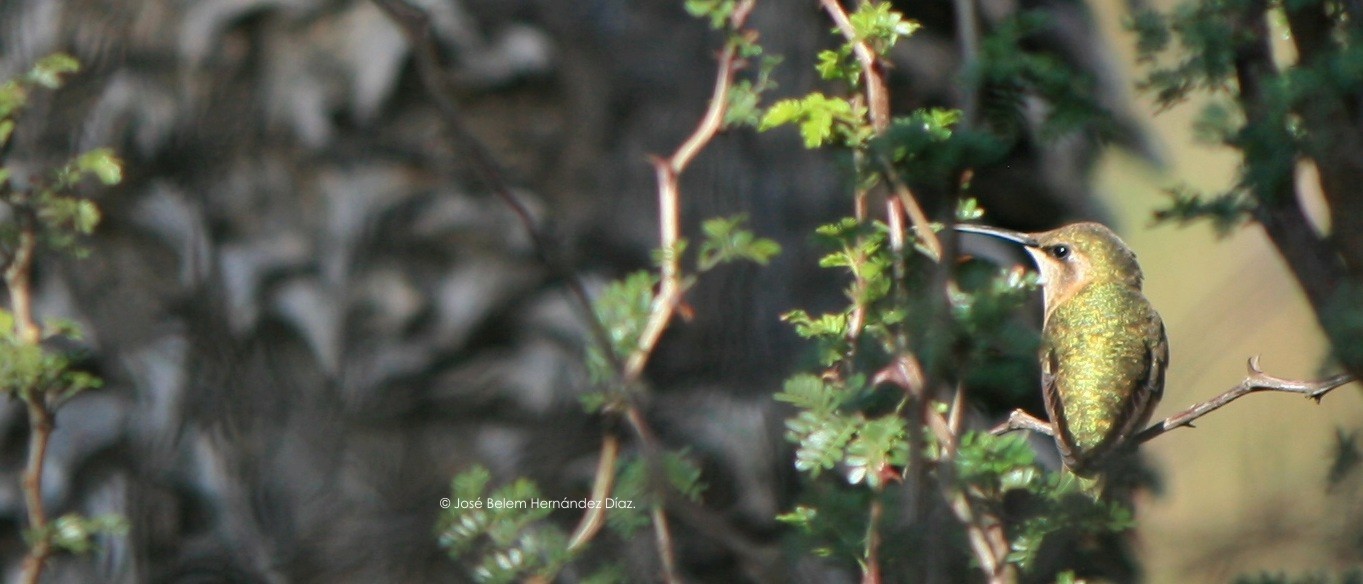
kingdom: Animalia
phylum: Chordata
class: Aves
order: Apodiformes
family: Trochilidae
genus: Calothorax
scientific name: Calothorax lucifer
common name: Lucifer sheartail
